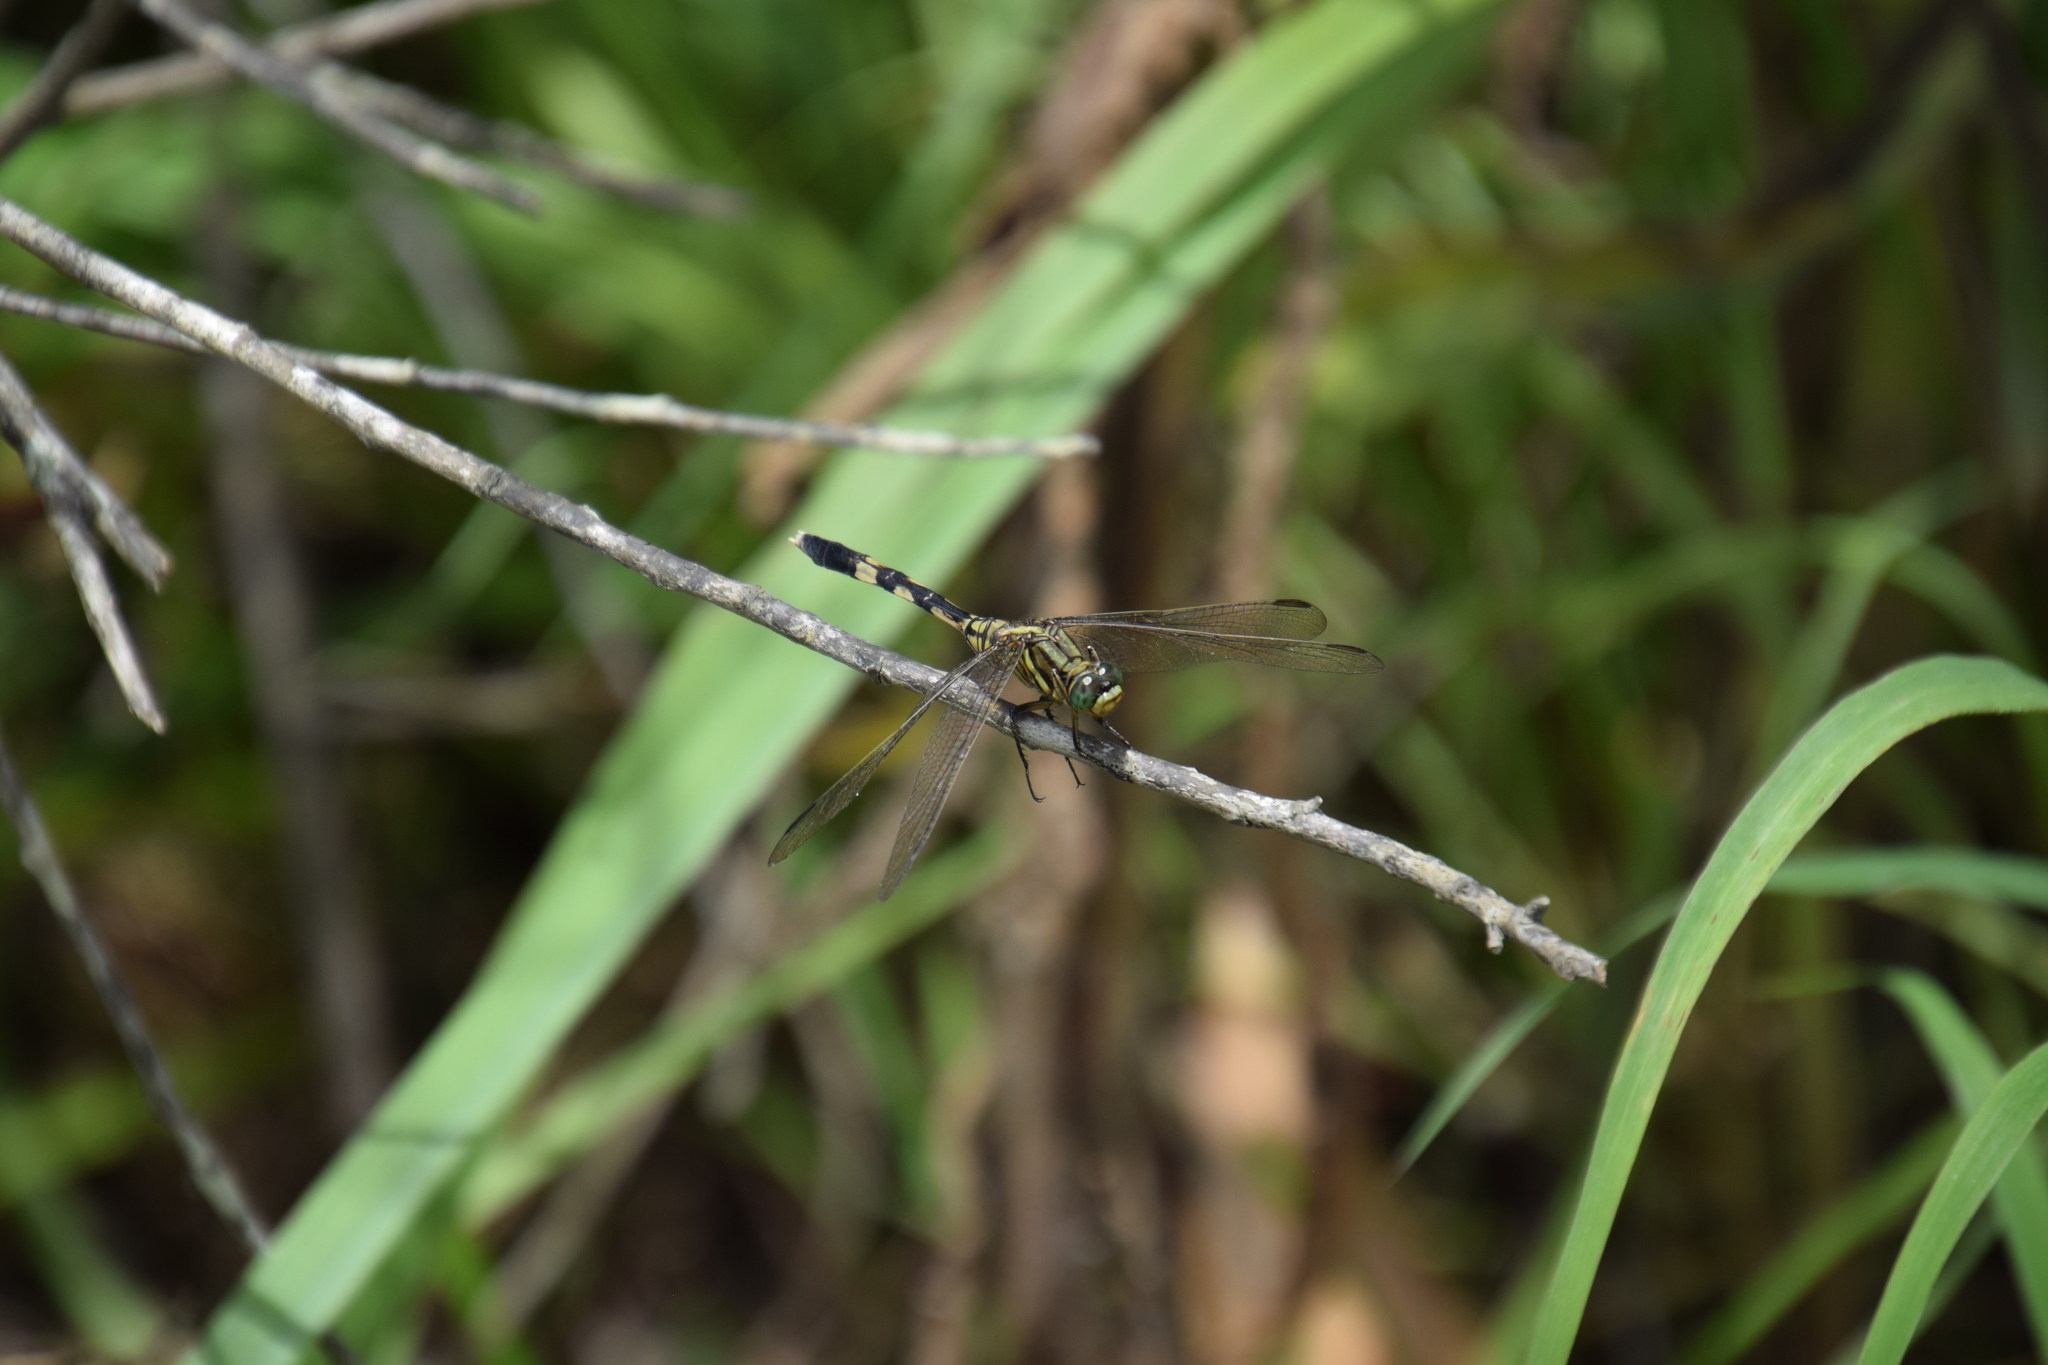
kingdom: Animalia
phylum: Arthropoda
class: Insecta
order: Odonata
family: Libellulidae
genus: Orthetrum
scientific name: Orthetrum sabina
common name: Slender skimmer
